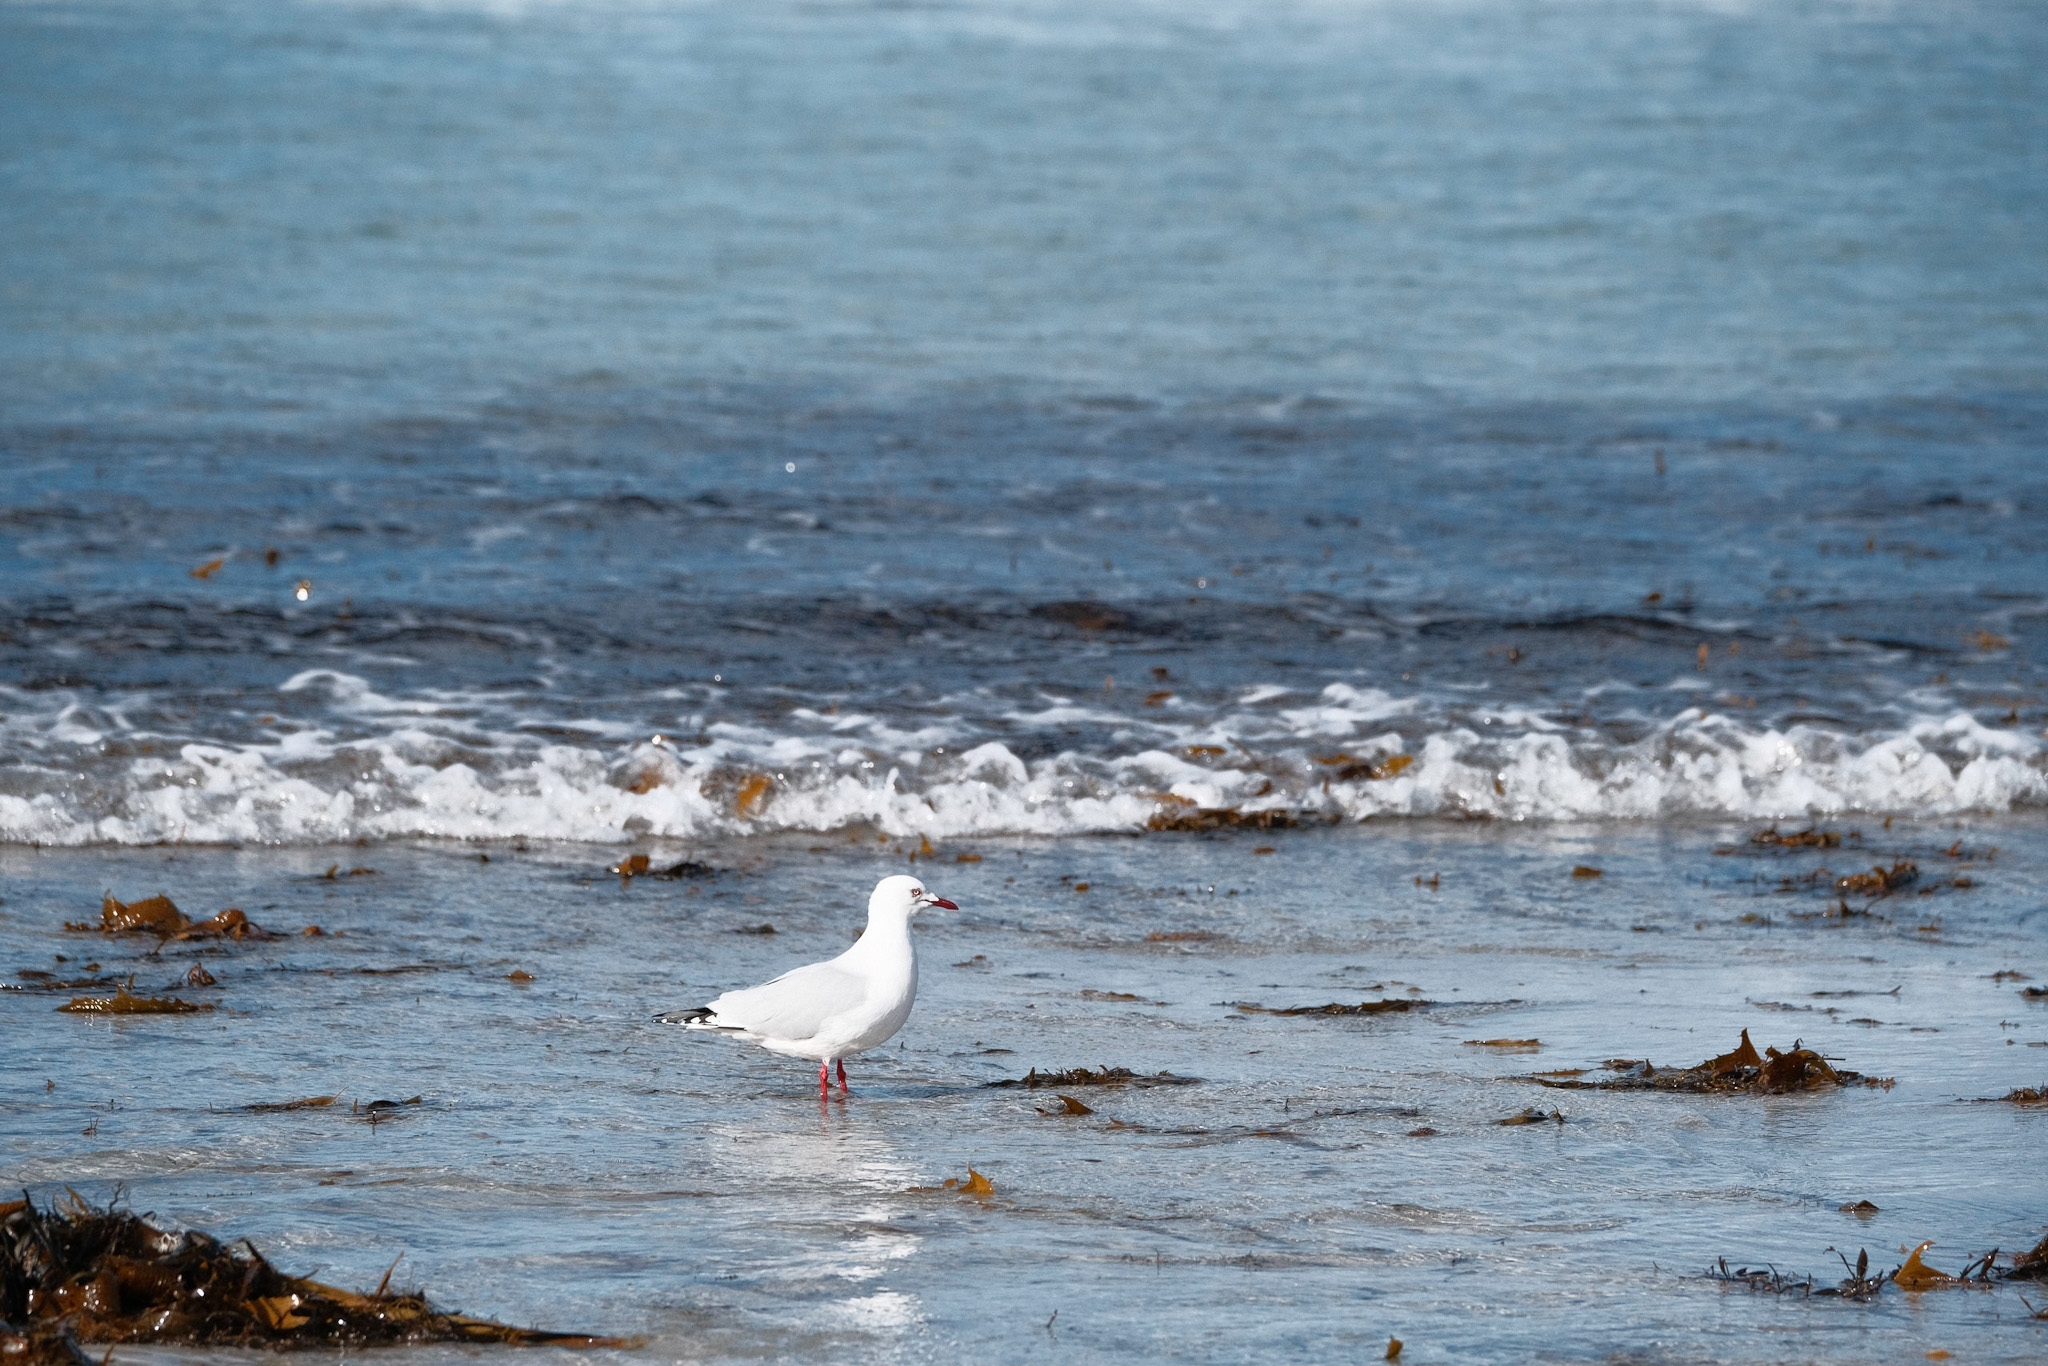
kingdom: Animalia
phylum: Chordata
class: Aves
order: Charadriiformes
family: Laridae
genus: Chroicocephalus
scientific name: Chroicocephalus novaehollandiae
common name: Silver gull
